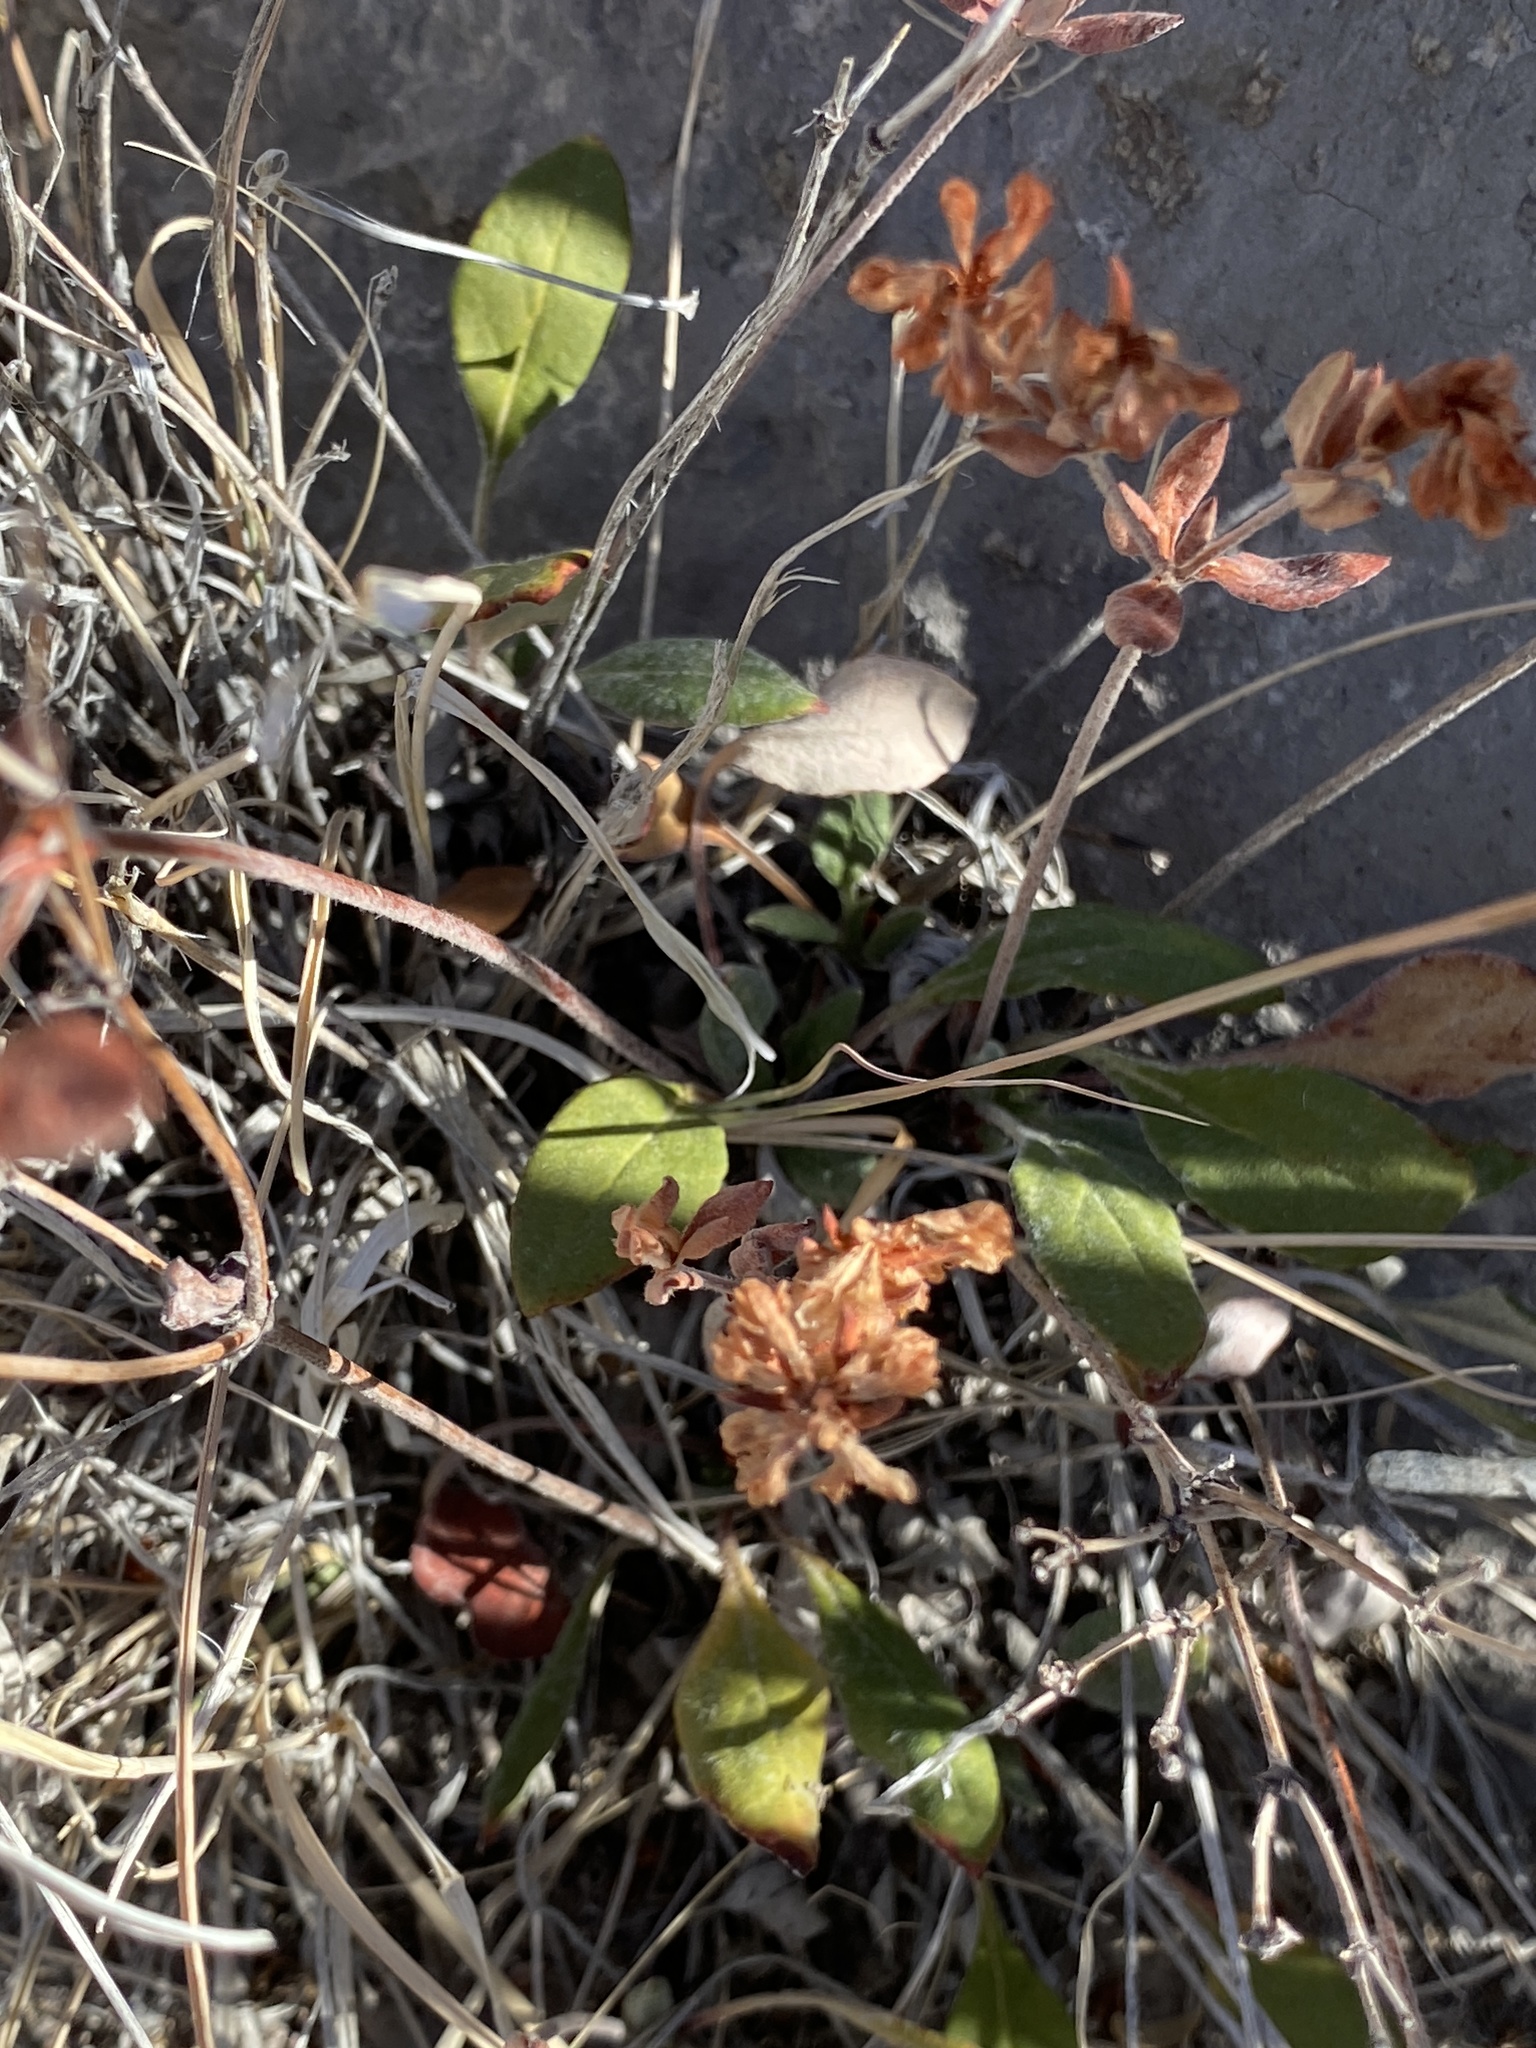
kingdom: Plantae
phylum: Tracheophyta
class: Magnoliopsida
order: Caryophyllales
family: Polygonaceae
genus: Eriogonum
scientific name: Eriogonum wootonii
